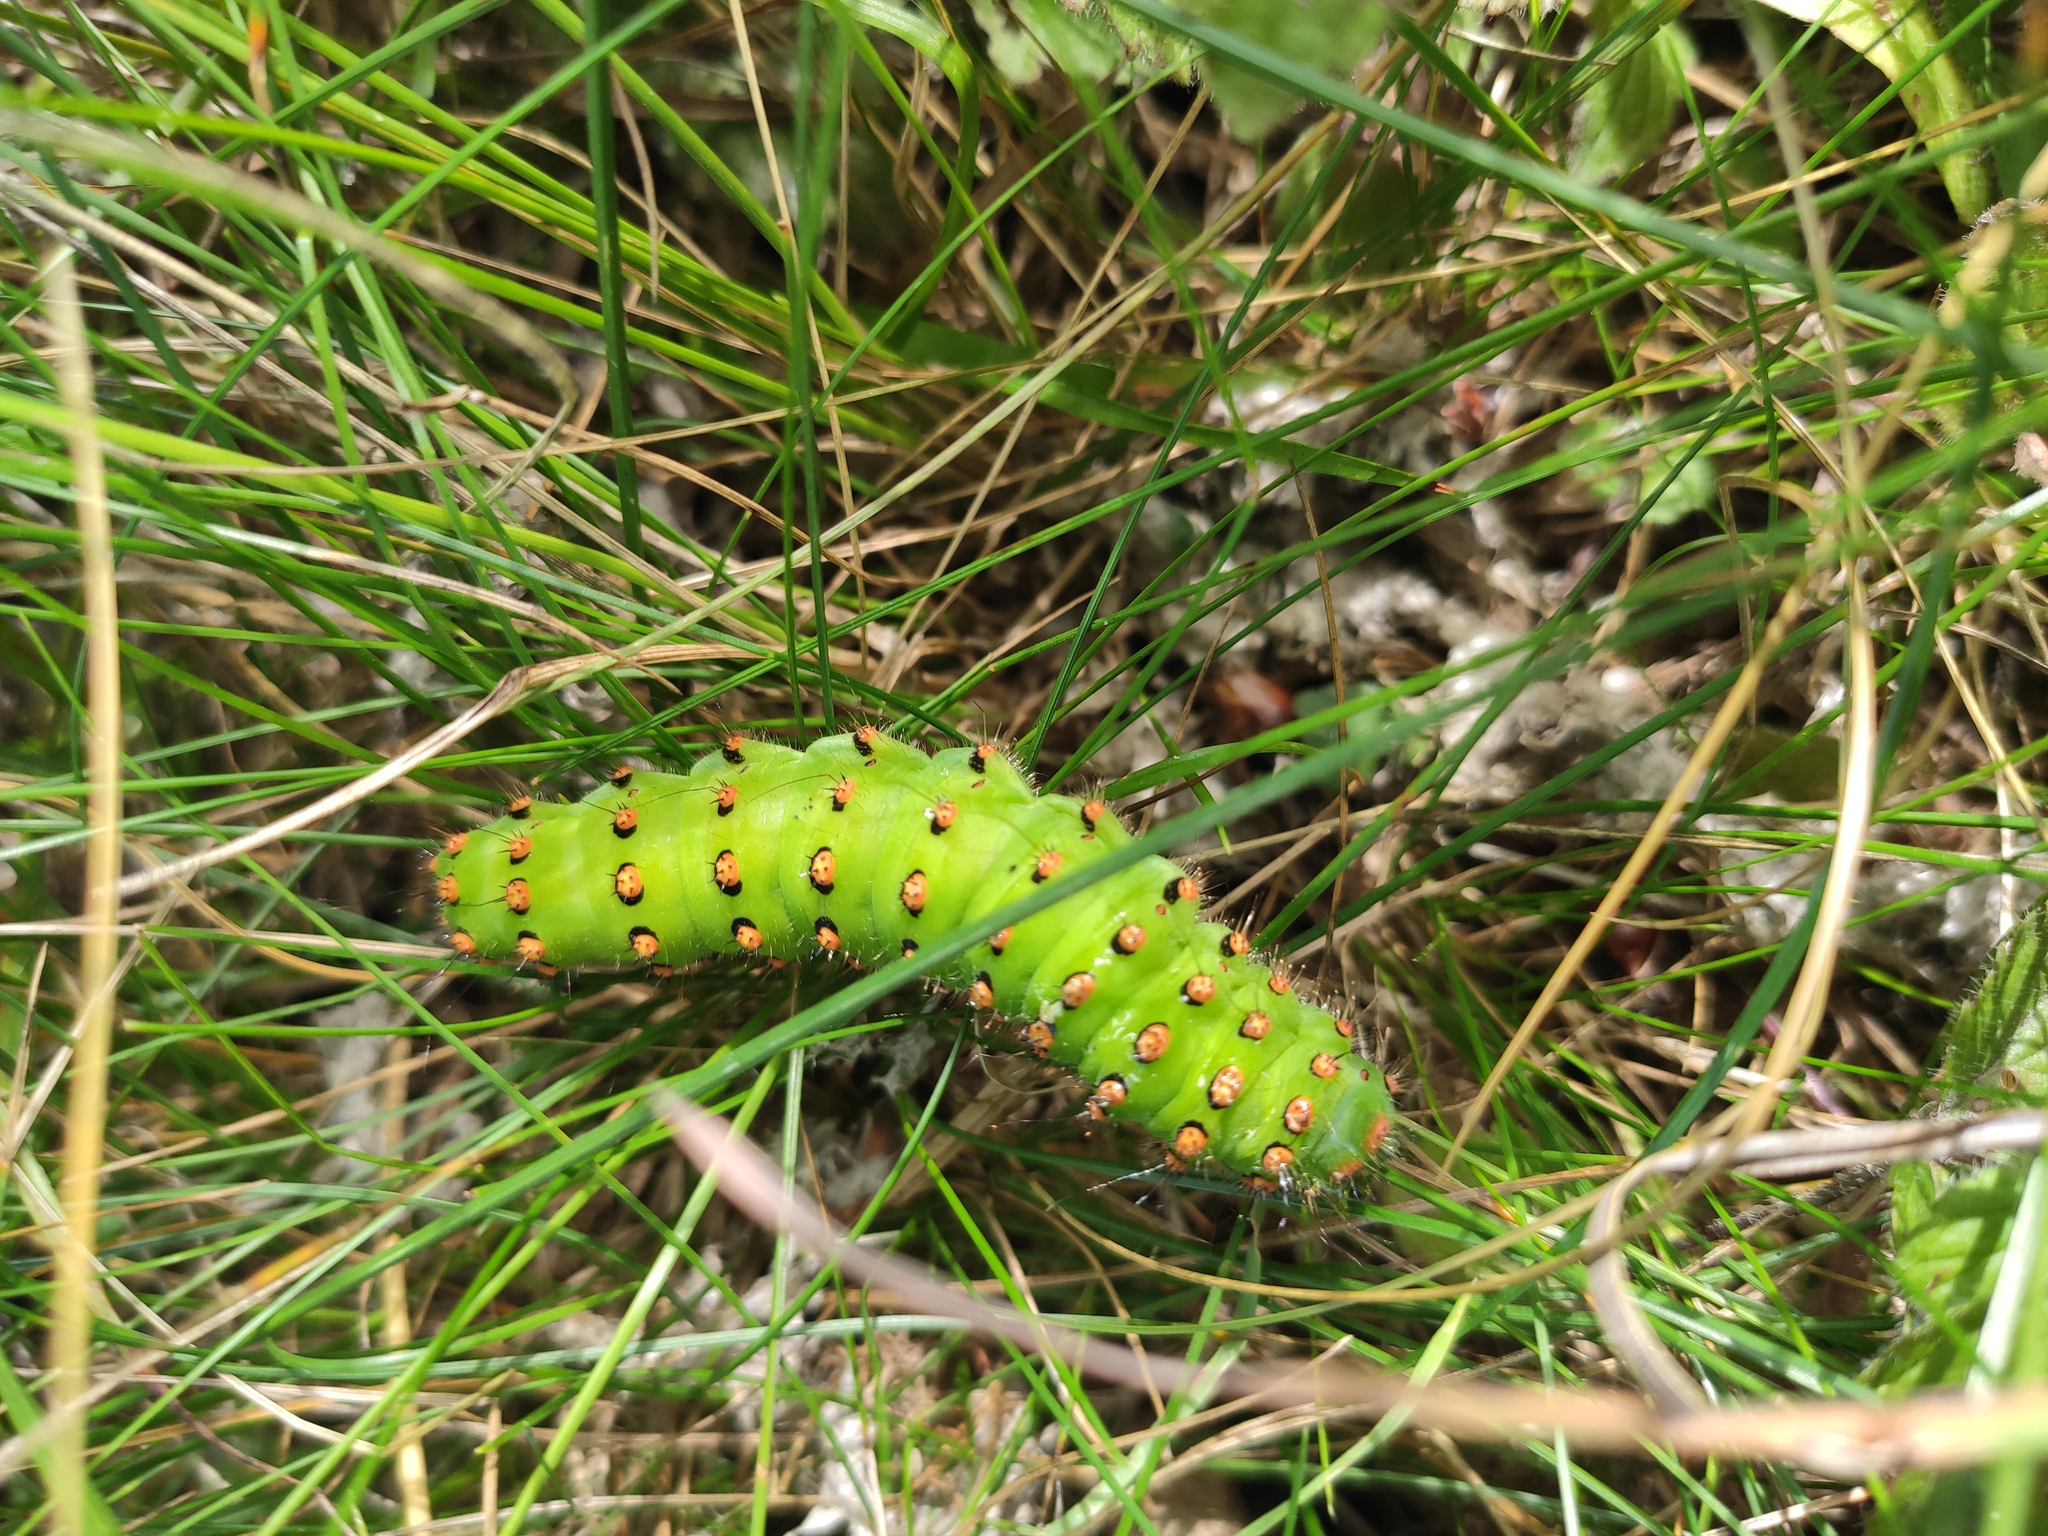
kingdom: Animalia
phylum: Arthropoda
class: Insecta
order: Lepidoptera
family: Saturniidae
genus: Saturnia
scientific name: Saturnia pavonia
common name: Emperor moth
